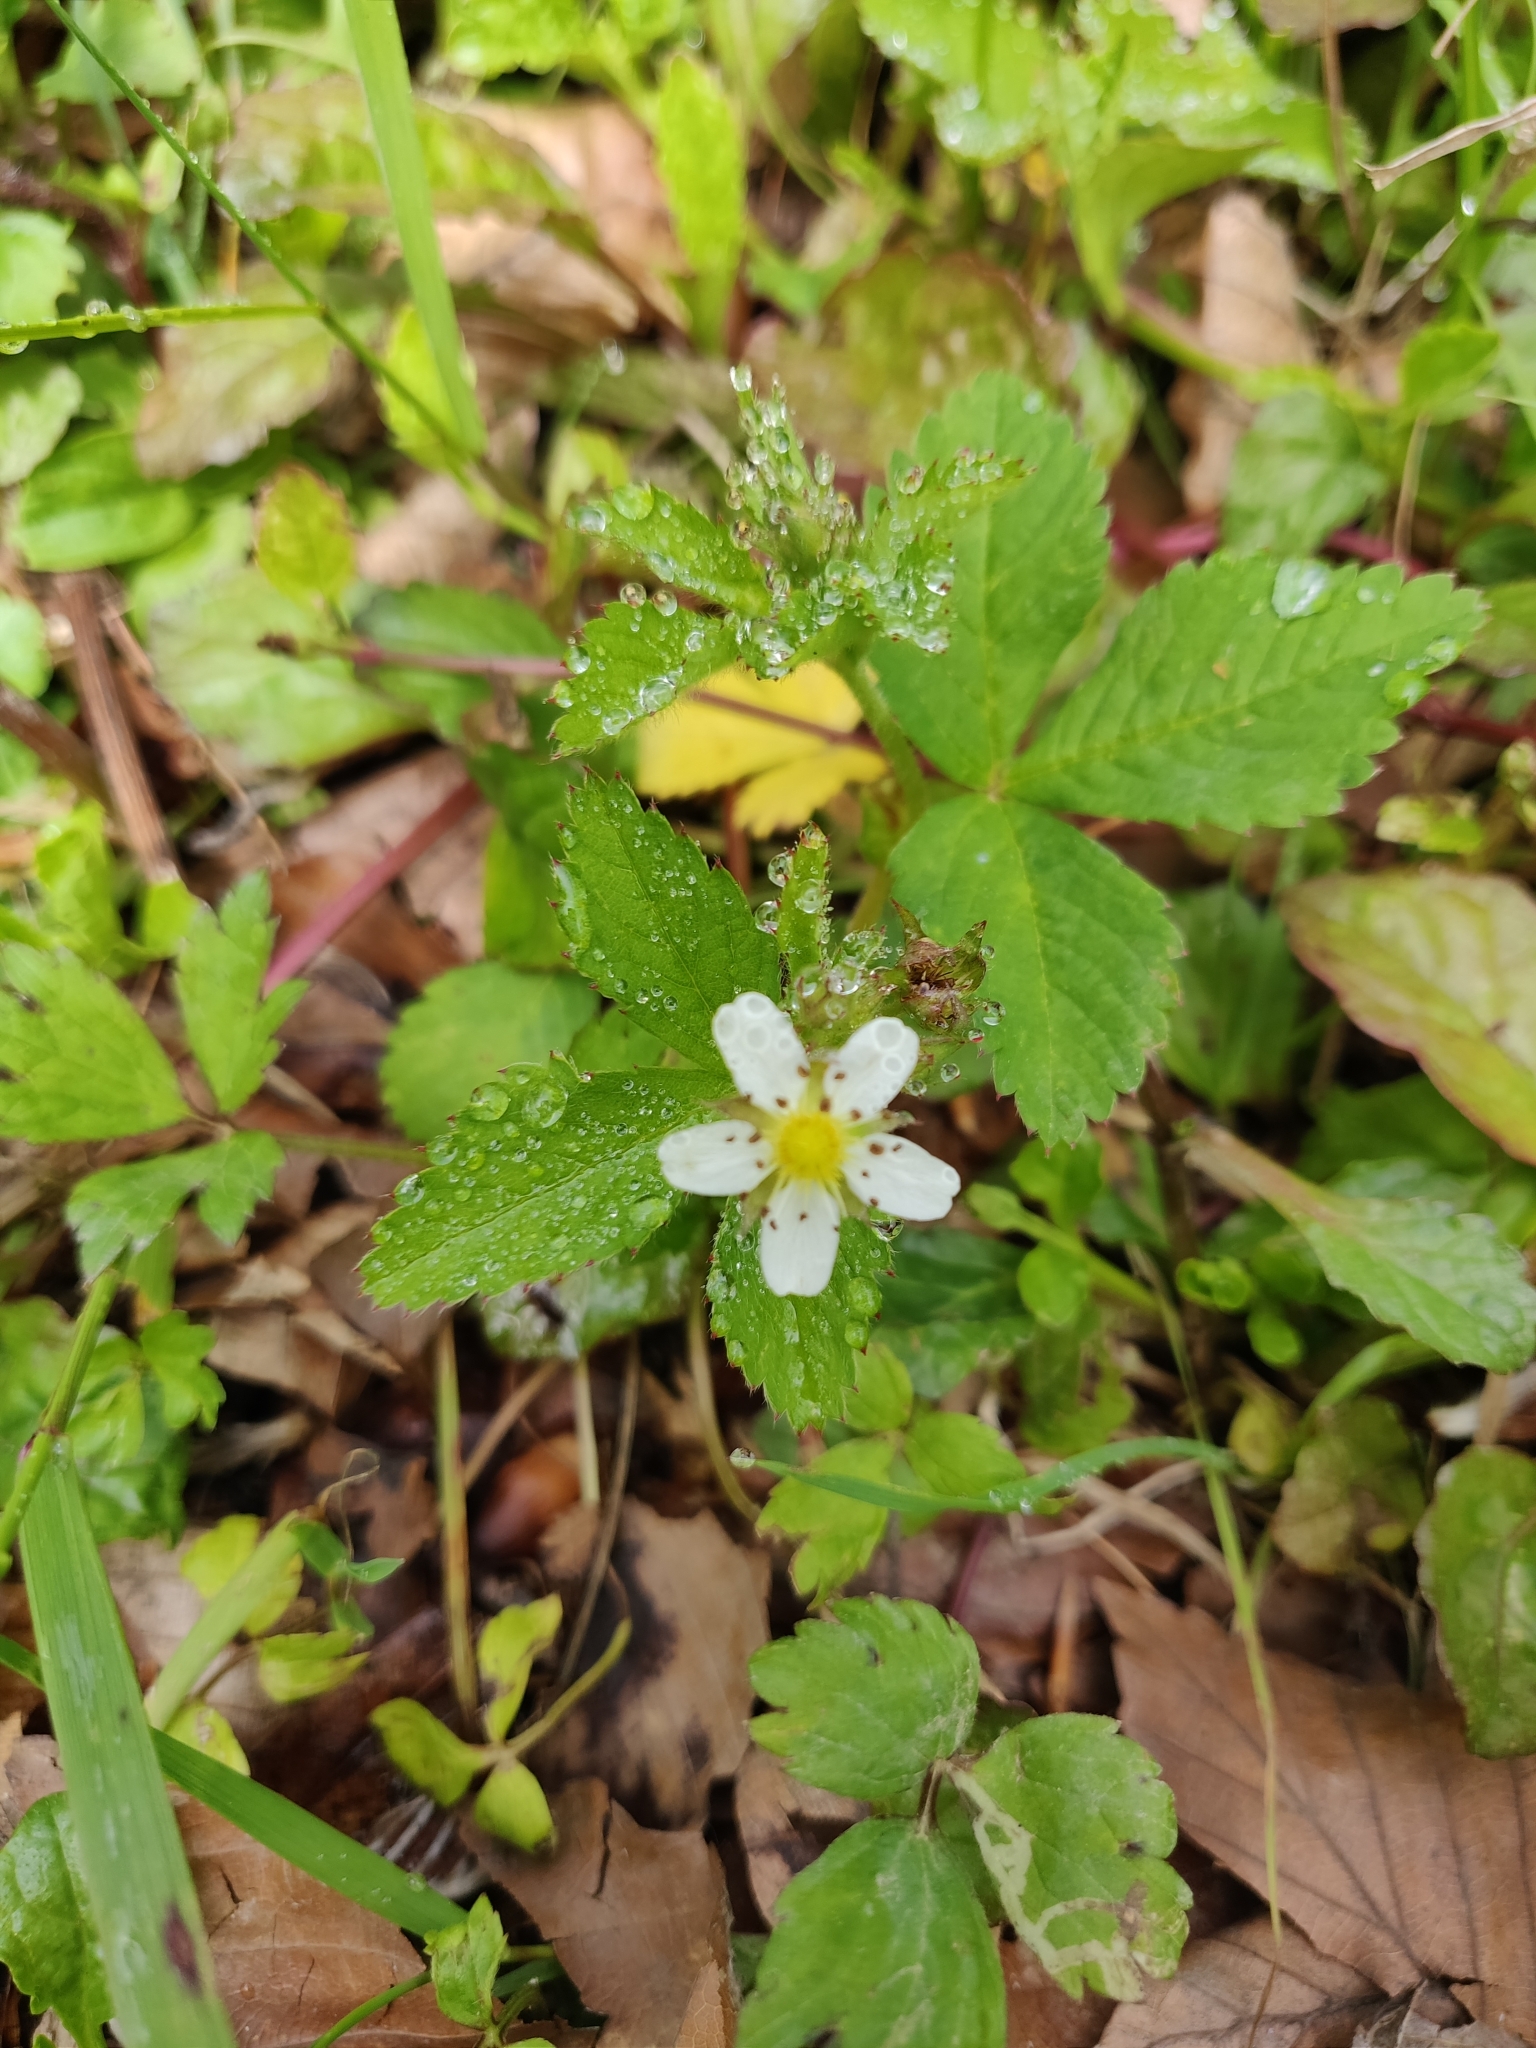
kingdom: Plantae
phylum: Tracheophyta
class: Magnoliopsida
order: Rosales
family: Rosaceae
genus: Fragaria
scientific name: Fragaria vesca
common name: Wild strawberry
